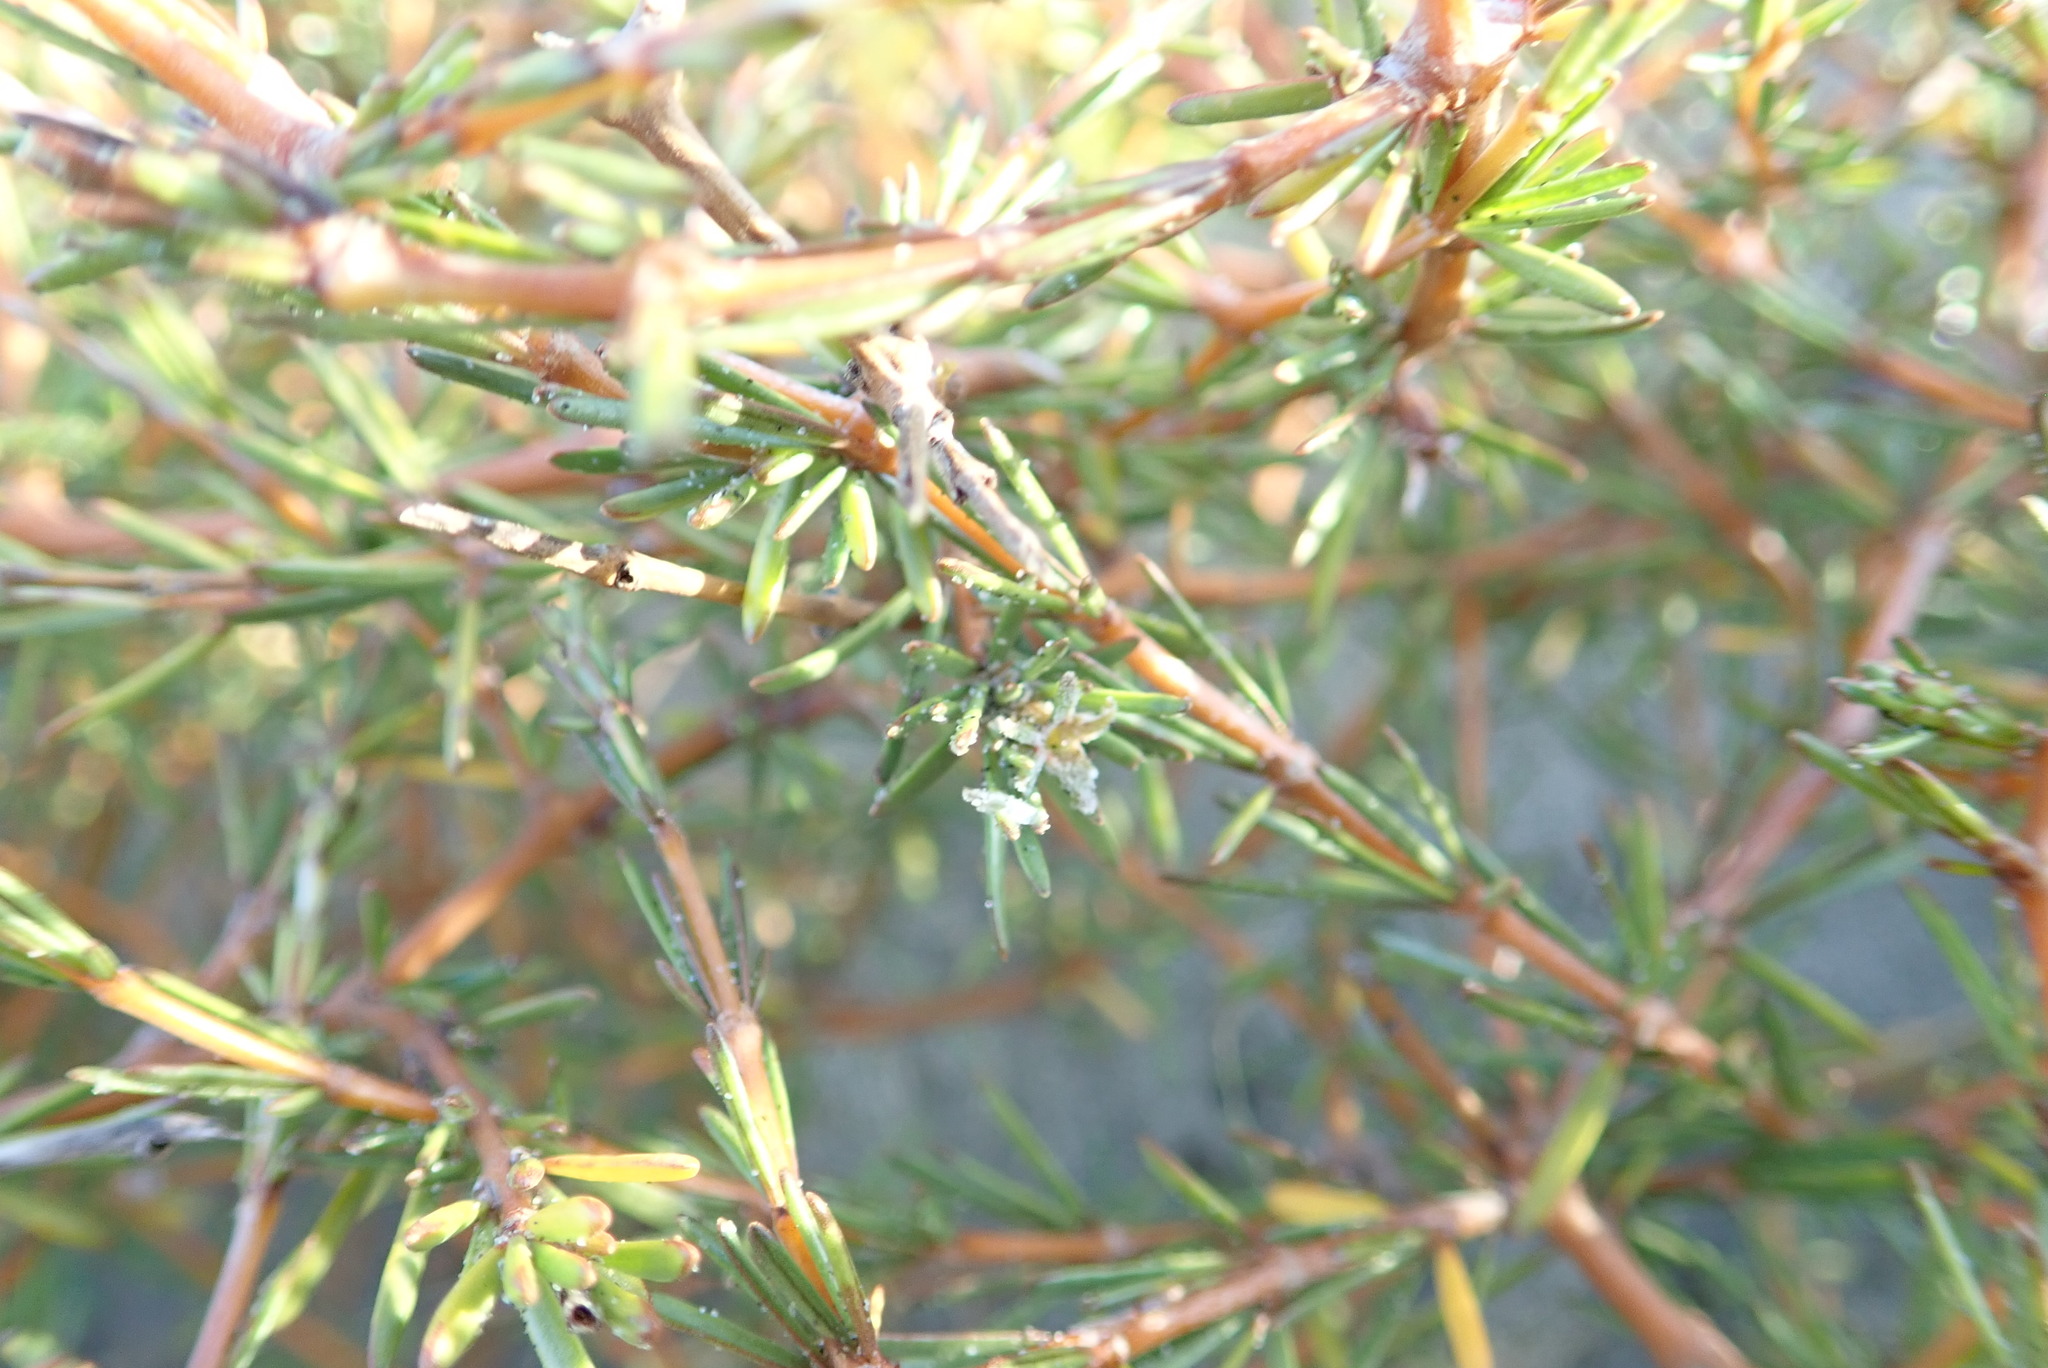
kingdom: Plantae
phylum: Tracheophyta
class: Magnoliopsida
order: Gentianales
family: Rubiaceae
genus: Coprosma
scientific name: Coprosma acerosa
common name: Sand coprosma
